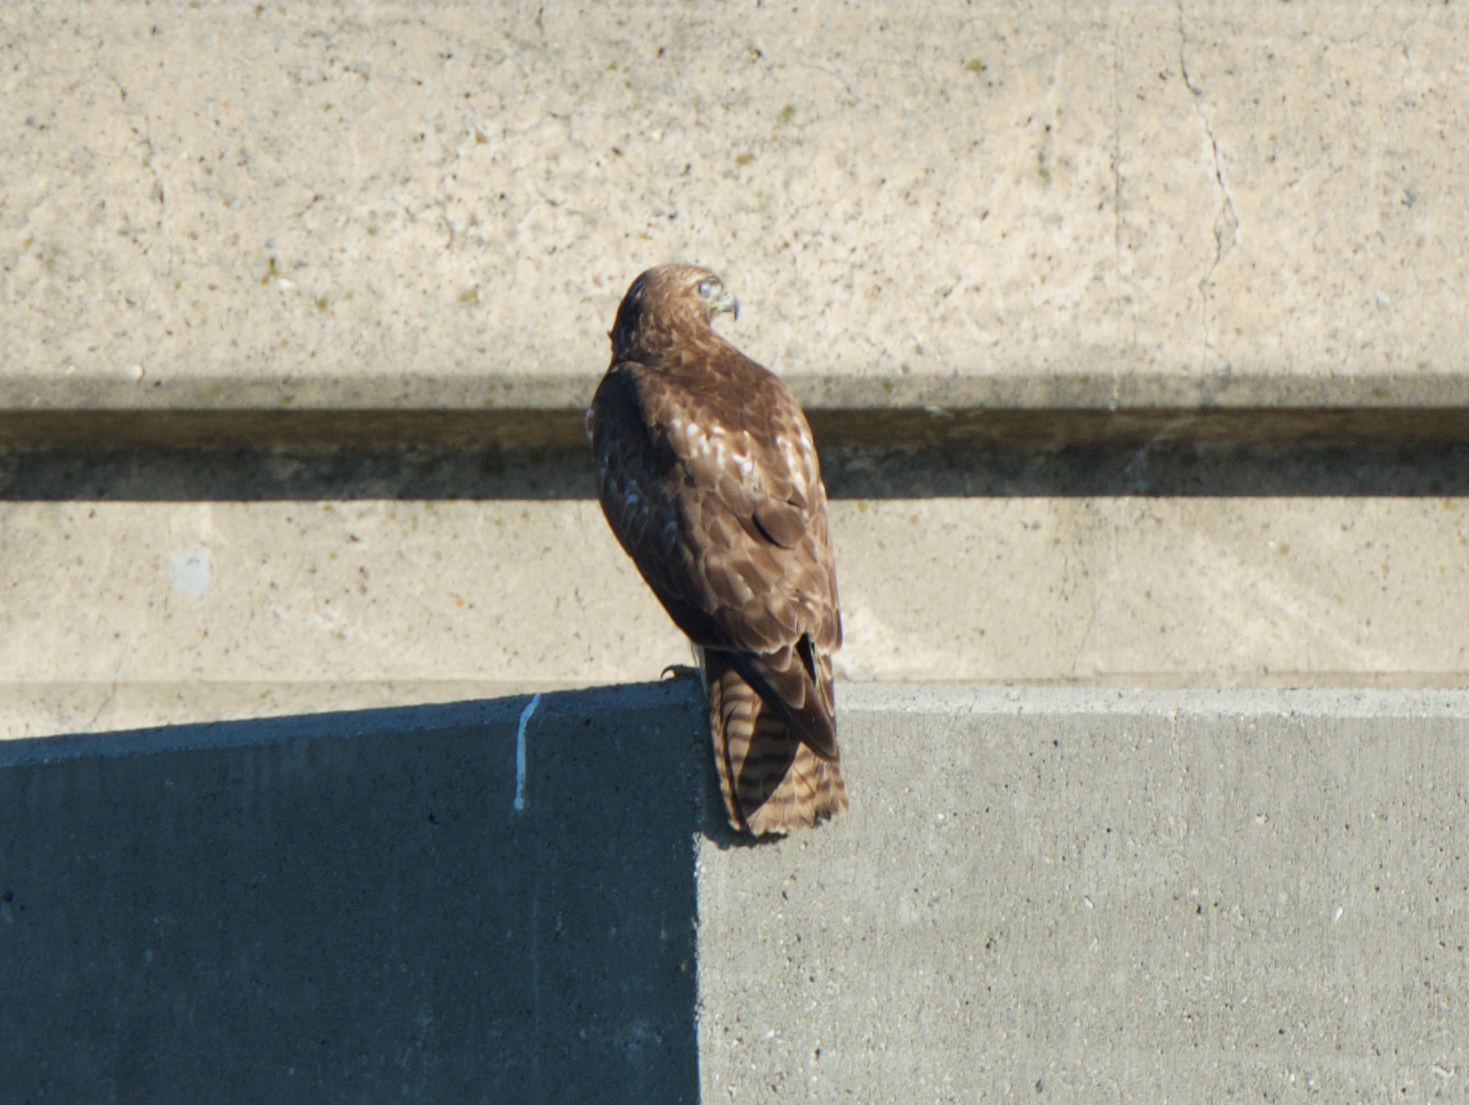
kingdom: Animalia
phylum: Chordata
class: Aves
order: Accipitriformes
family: Accipitridae
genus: Buteo
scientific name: Buteo jamaicensis
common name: Red-tailed hawk
